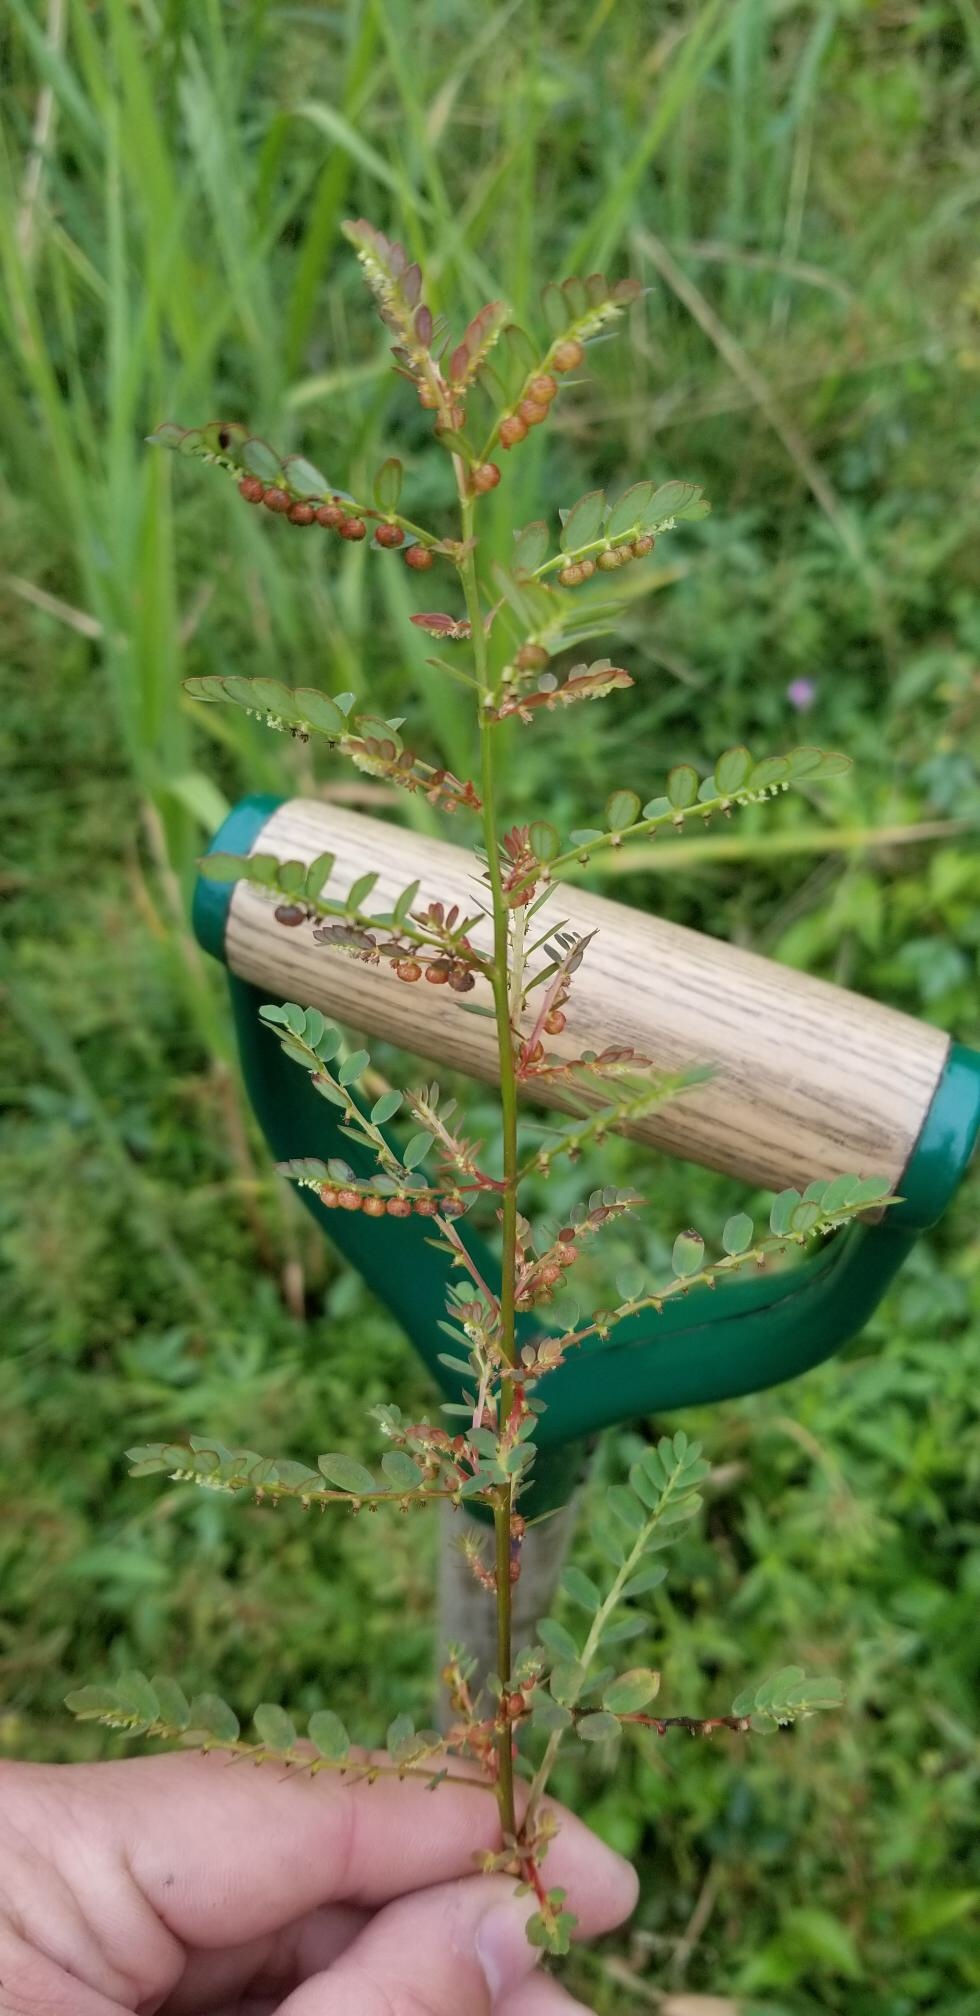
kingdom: Plantae
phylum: Tracheophyta
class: Magnoliopsida
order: Malpighiales
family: Phyllanthaceae
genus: Phyllanthus
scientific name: Phyllanthus urinaria
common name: Chamber bitter
